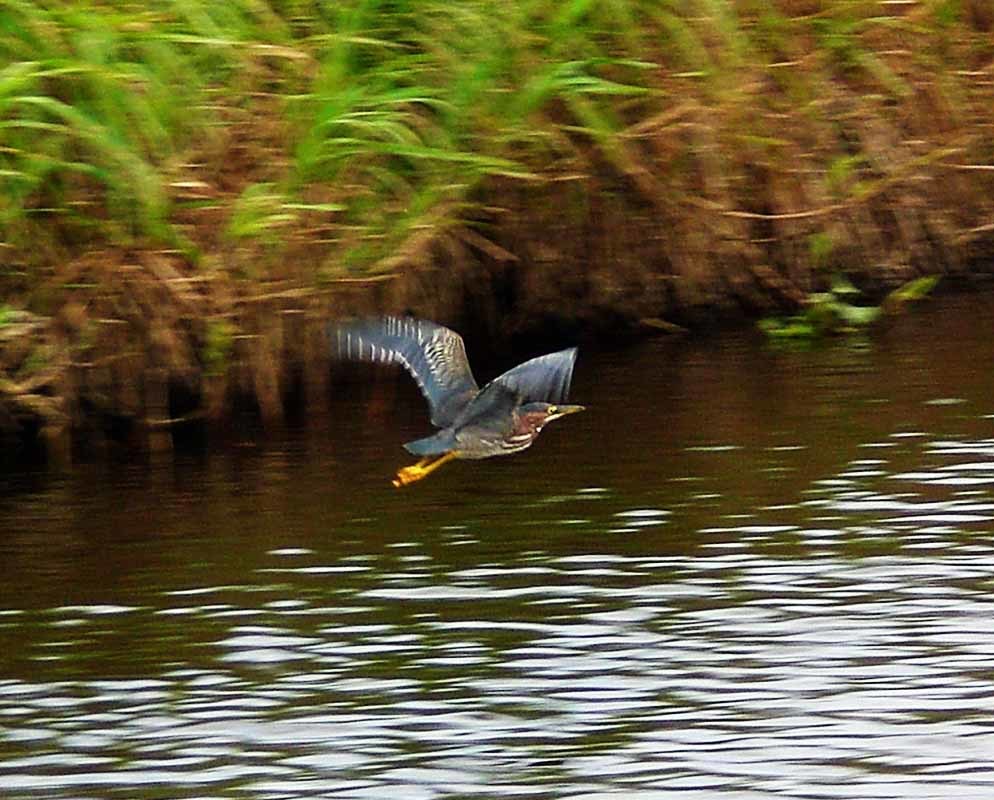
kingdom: Animalia
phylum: Chordata
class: Aves
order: Pelecaniformes
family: Ardeidae
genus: Butorides
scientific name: Butorides virescens
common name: Green heron
